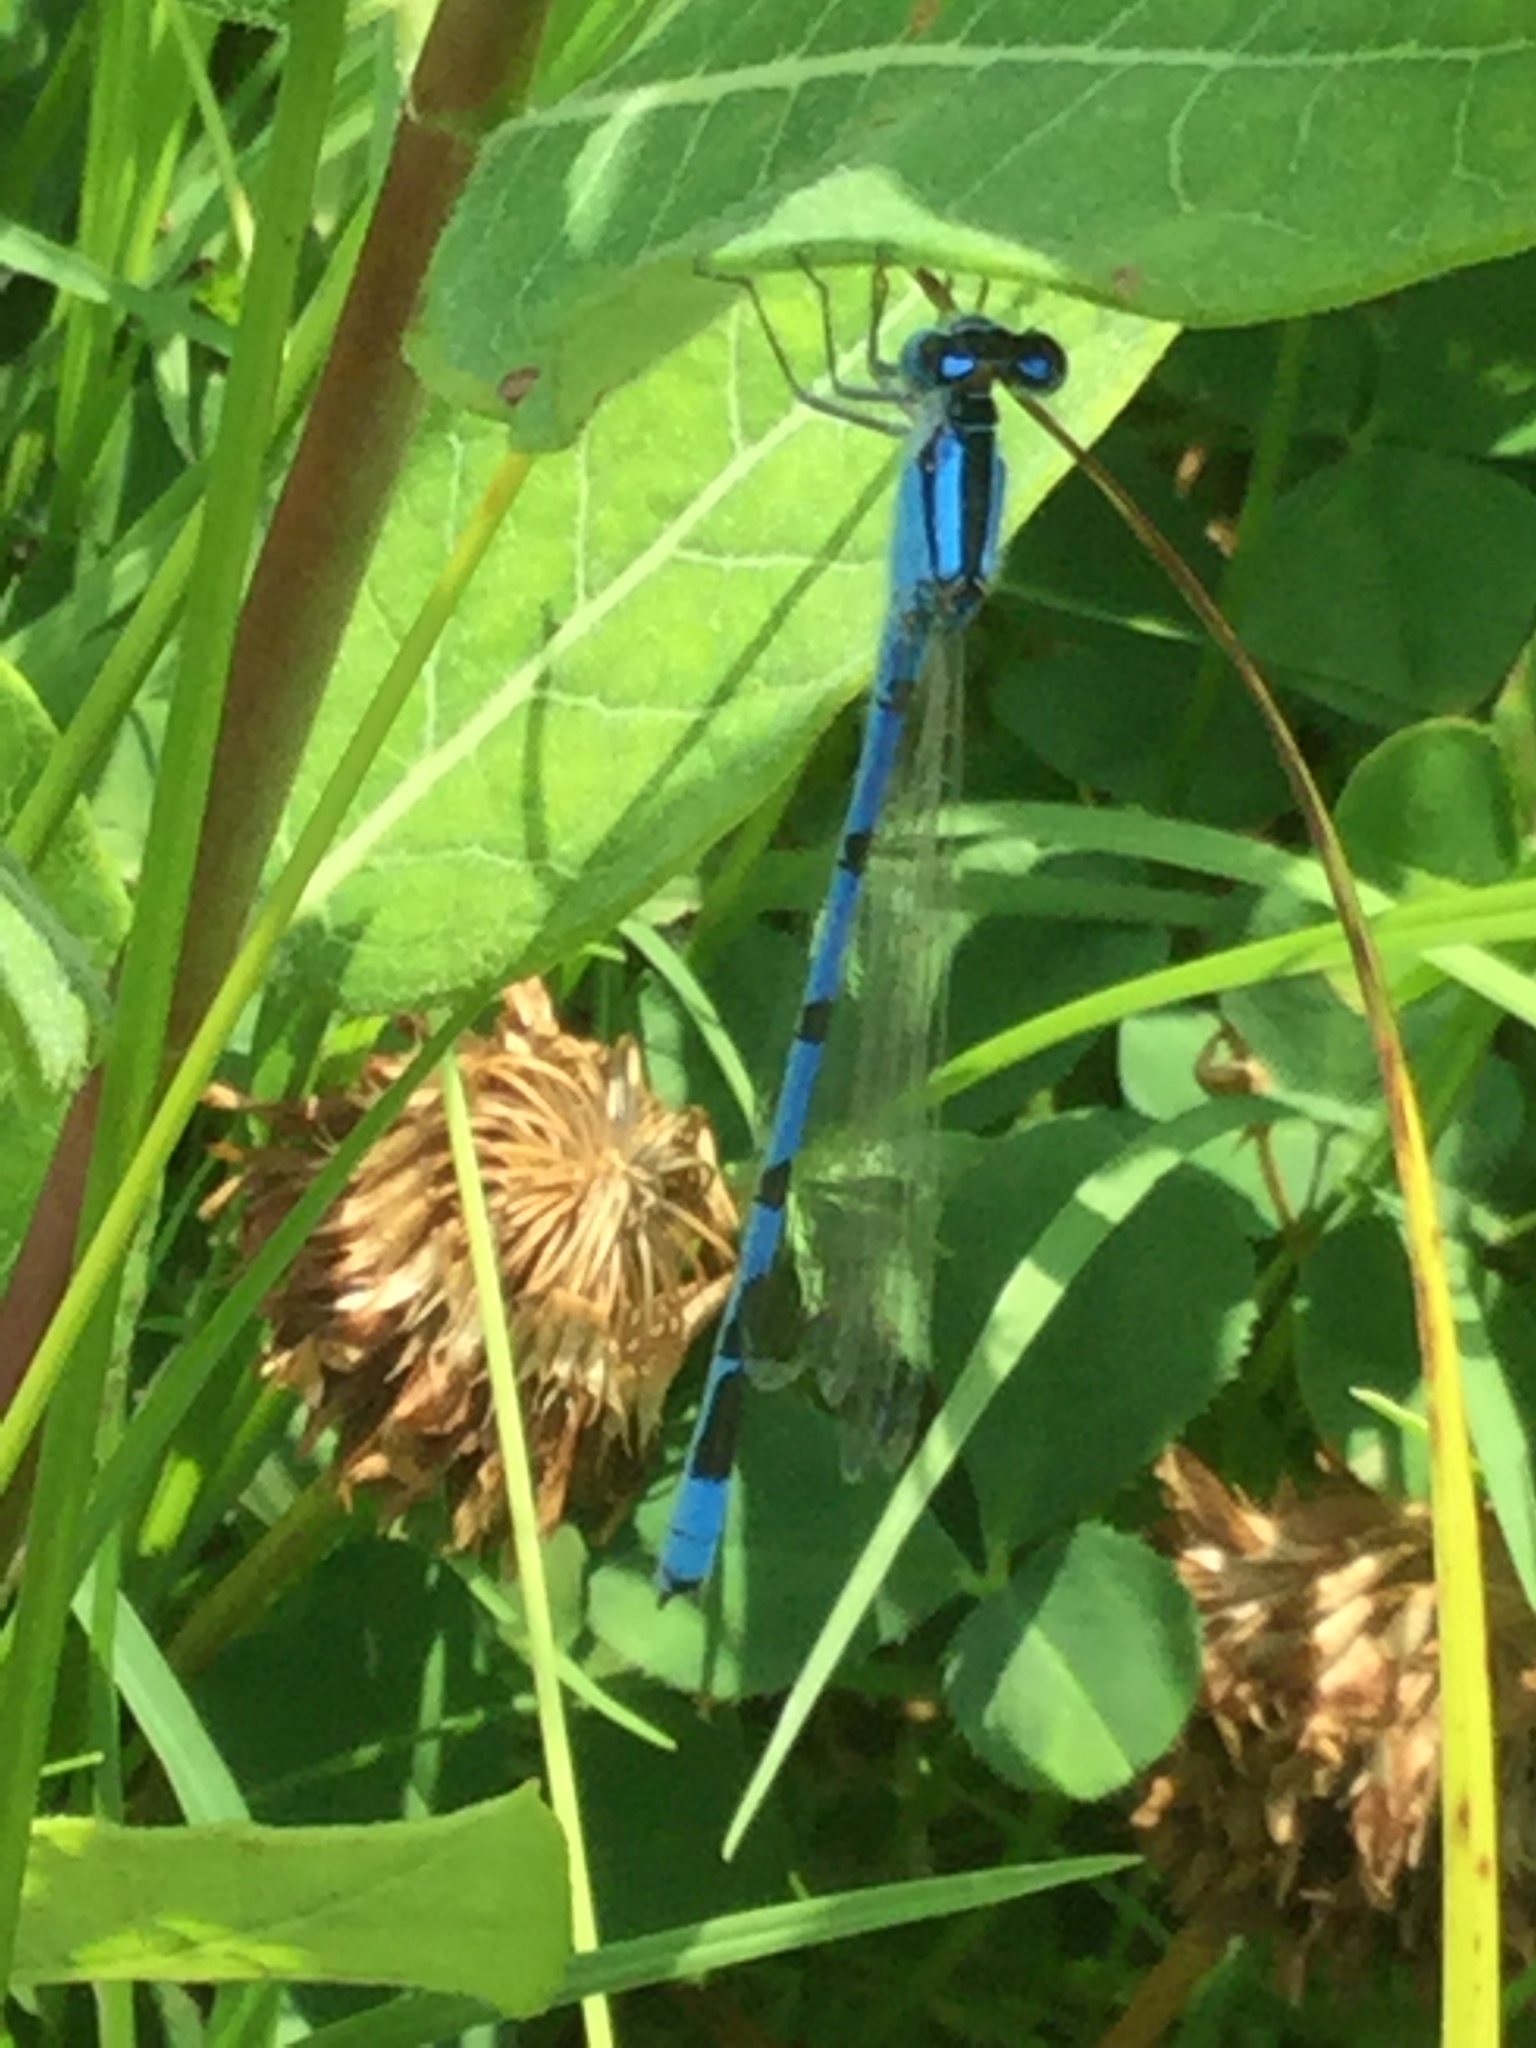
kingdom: Animalia
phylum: Arthropoda
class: Insecta
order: Odonata
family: Coenagrionidae
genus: Enallagma
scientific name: Enallagma civile
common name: Damselfly
